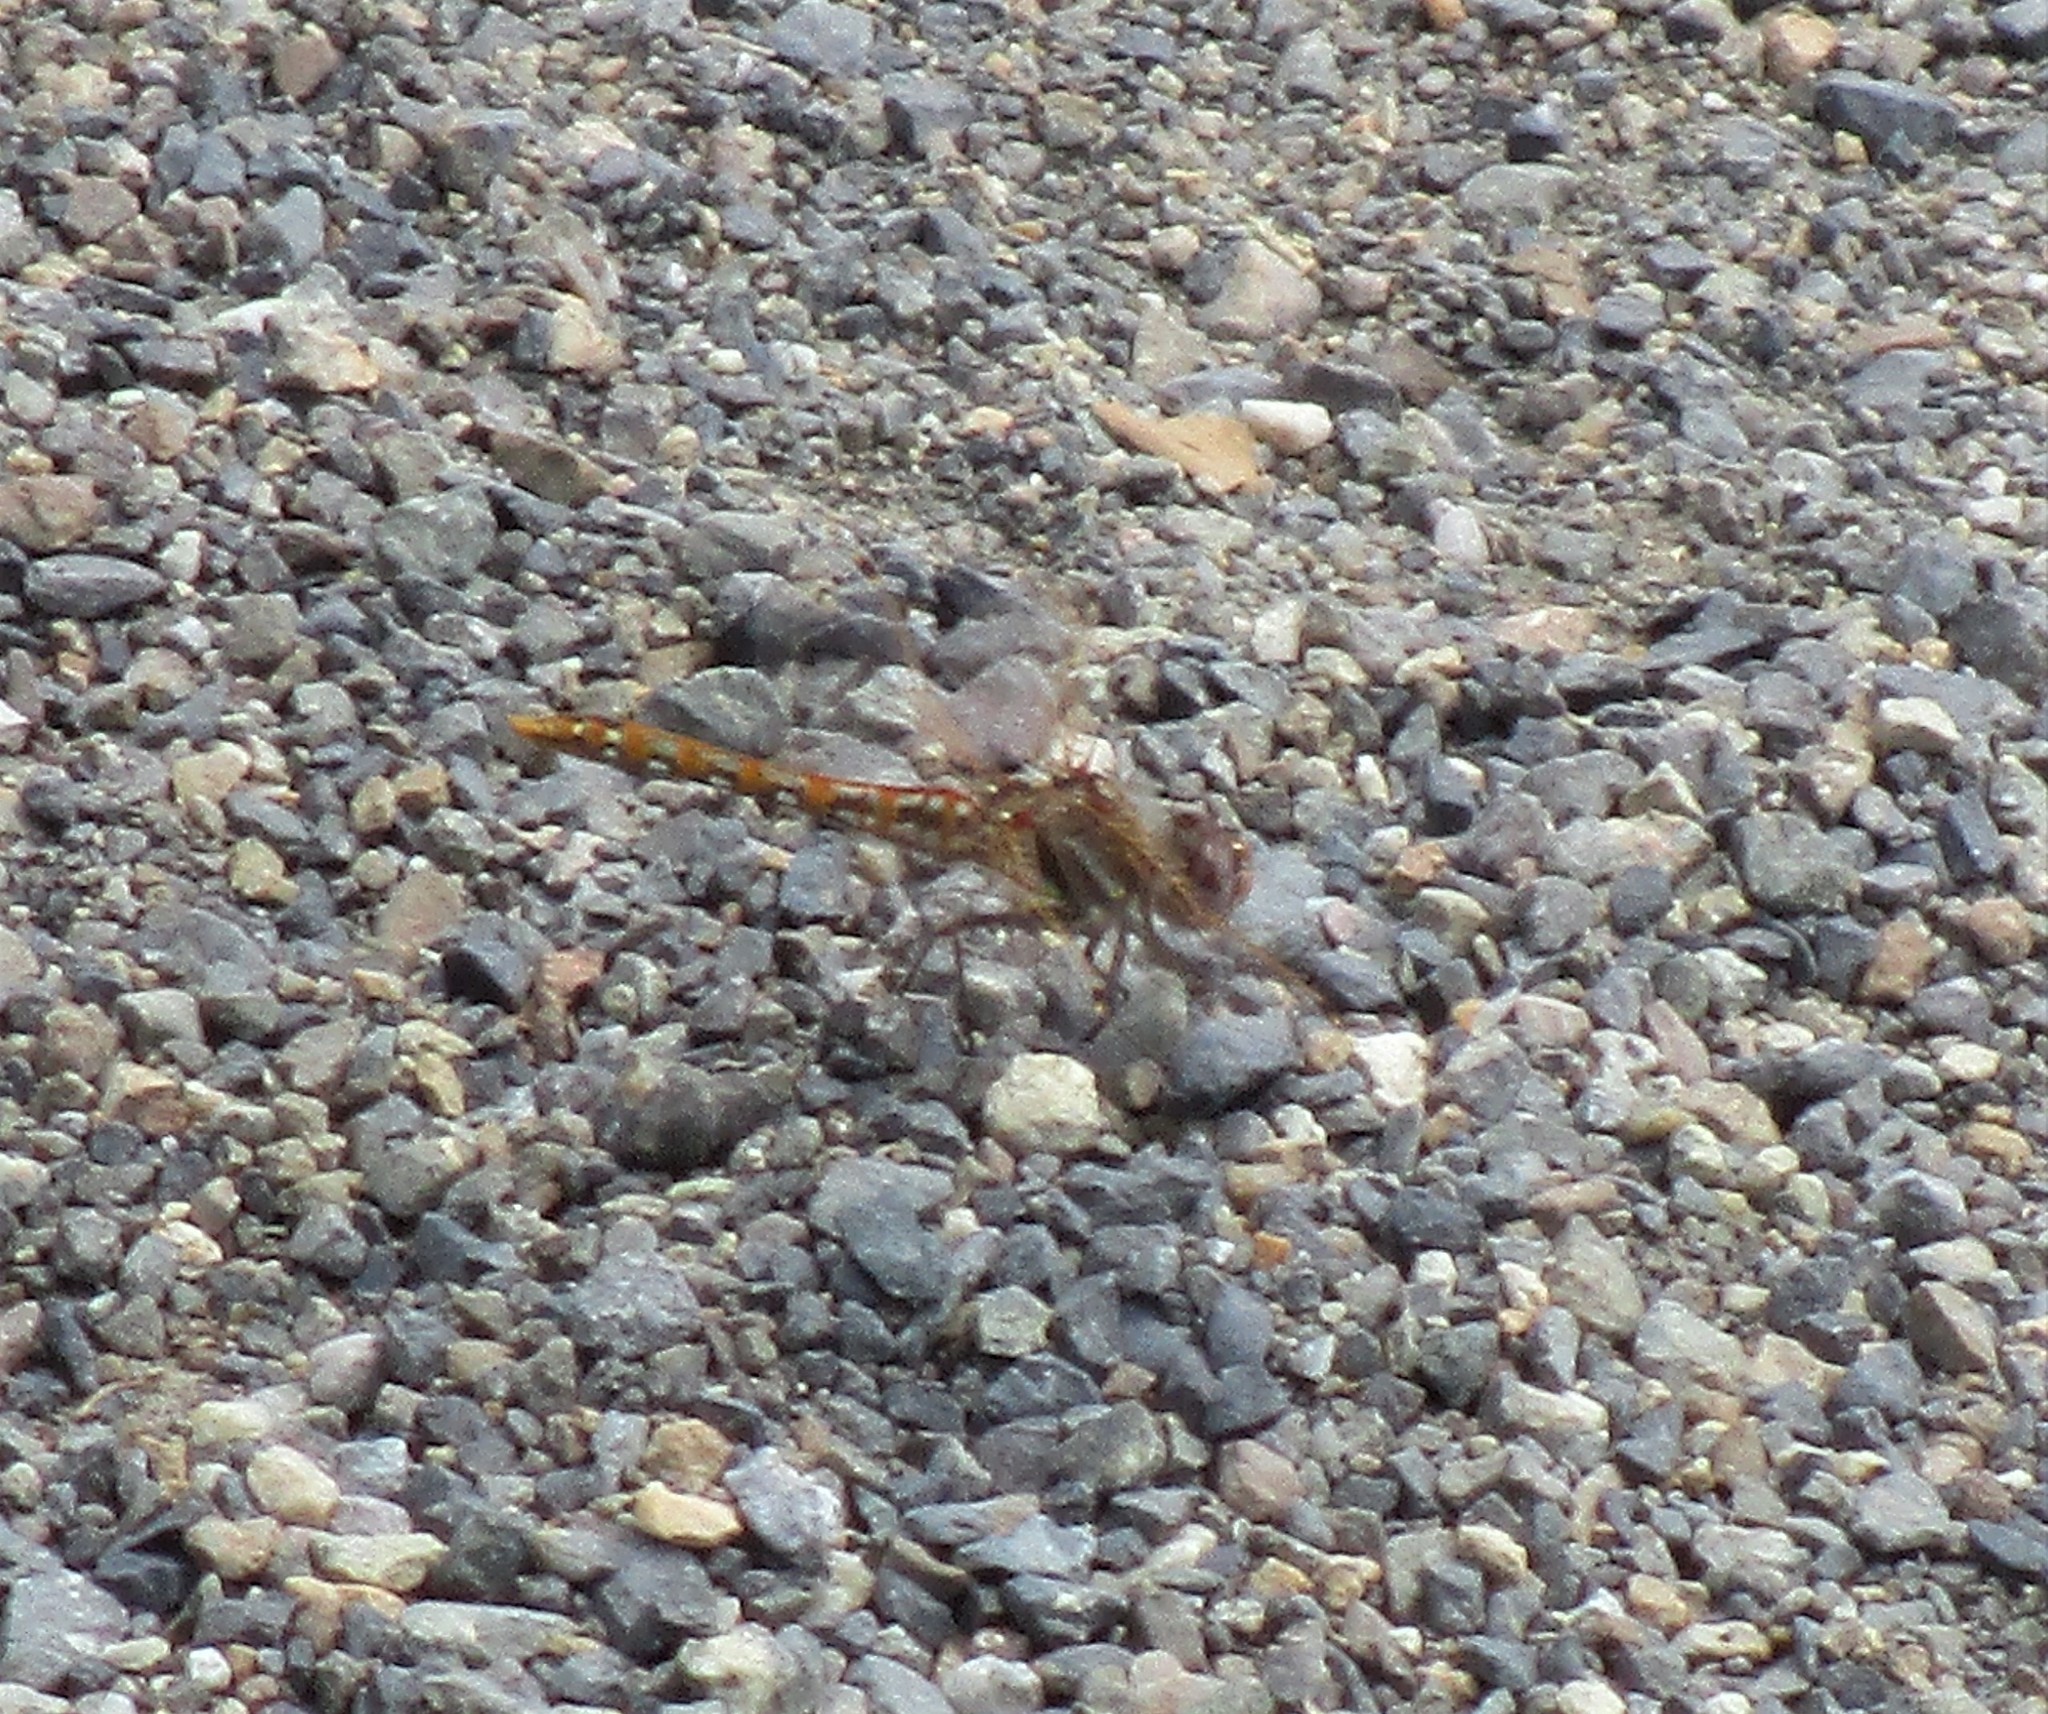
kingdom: Animalia
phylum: Arthropoda
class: Insecta
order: Odonata
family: Libellulidae
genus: Sympetrum
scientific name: Sympetrum corruptum
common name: Variegated meadowhawk
